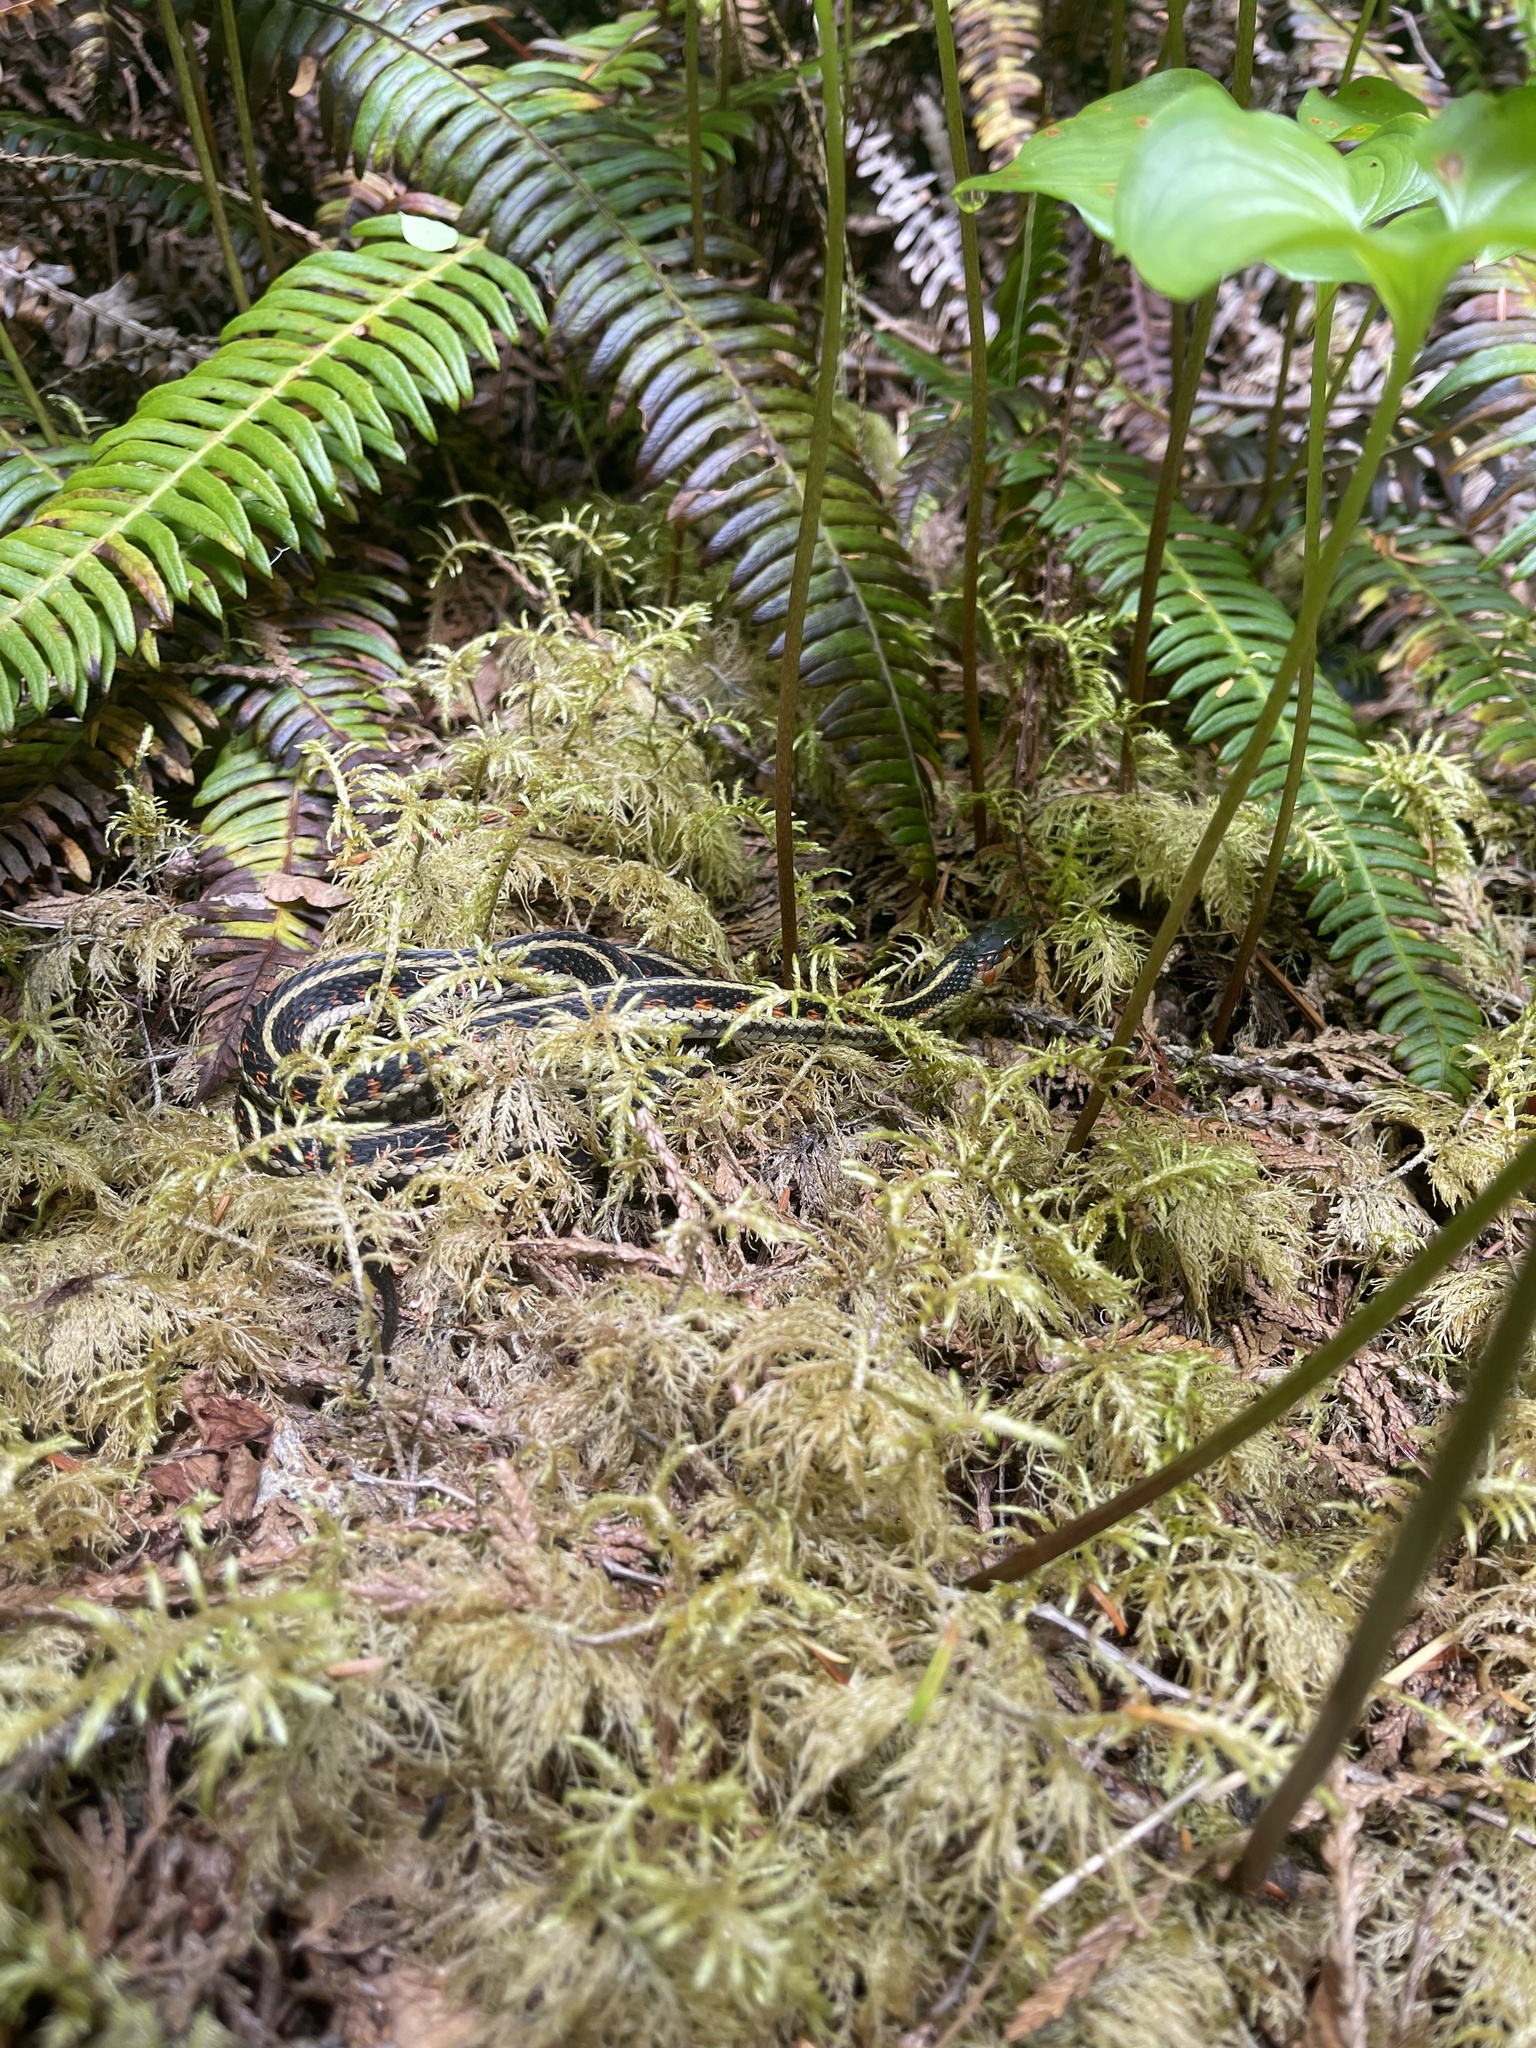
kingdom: Animalia
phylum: Chordata
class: Squamata
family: Colubridae
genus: Thamnophis
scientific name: Thamnophis sirtalis
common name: Common garter snake
